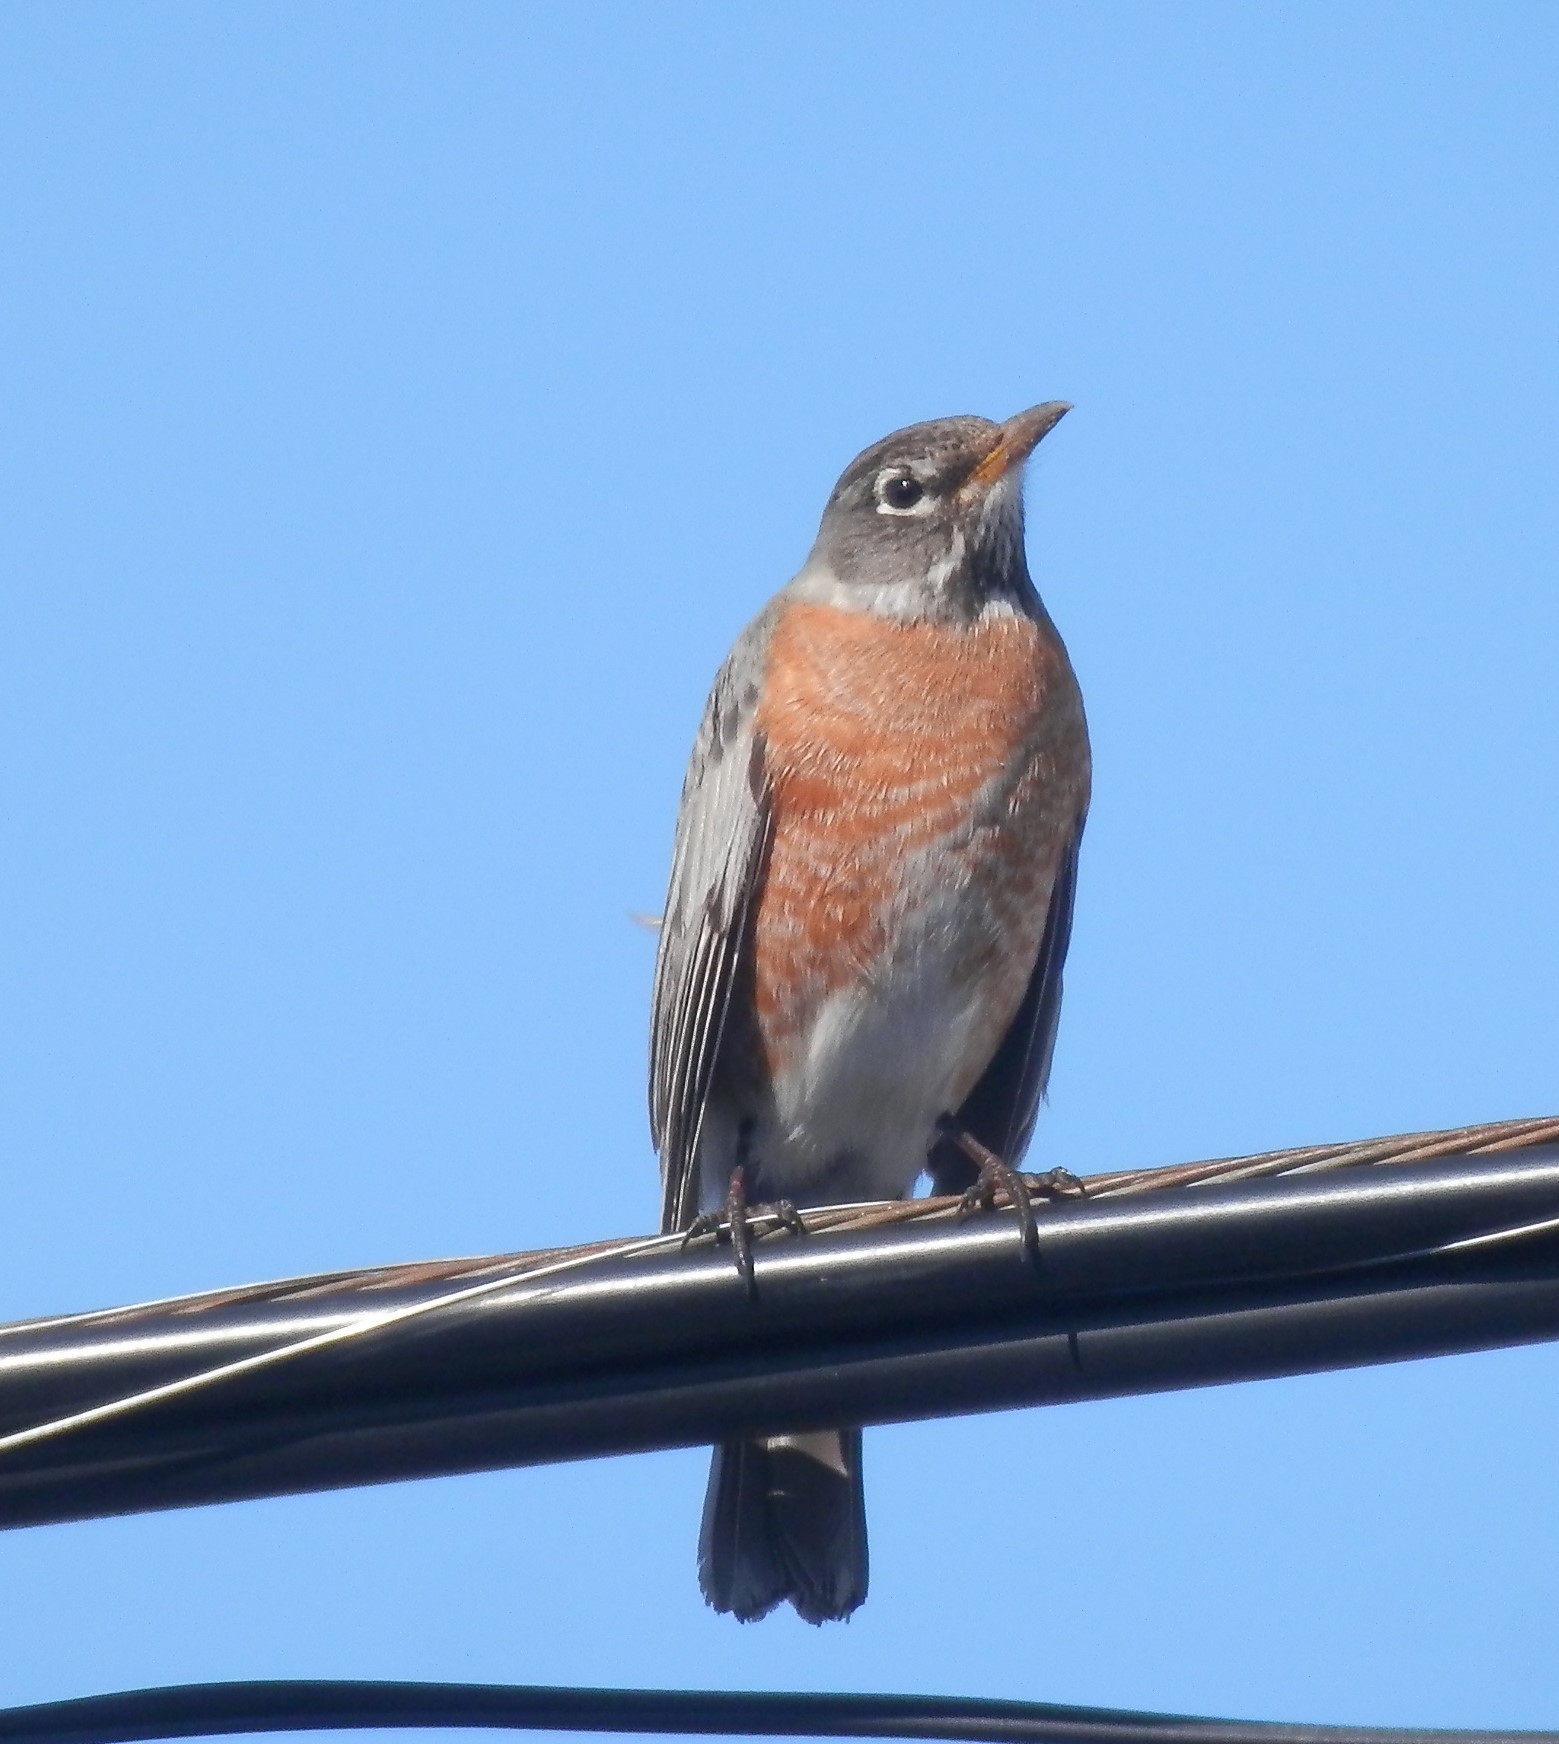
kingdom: Animalia
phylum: Chordata
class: Aves
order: Passeriformes
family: Turdidae
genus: Turdus
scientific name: Turdus migratorius
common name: American robin
